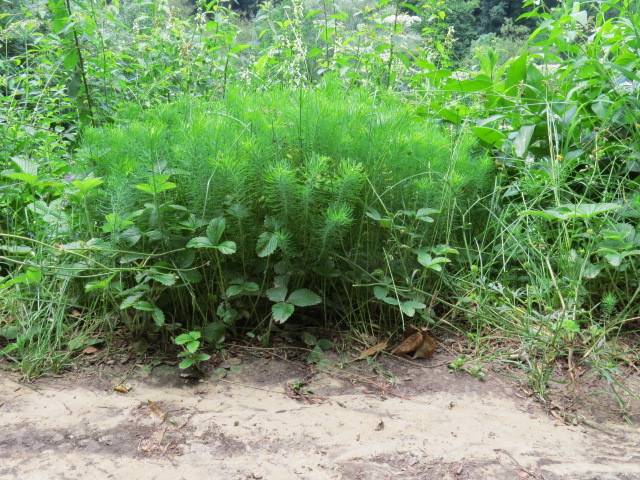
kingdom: Plantae
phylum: Tracheophyta
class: Magnoliopsida
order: Malpighiales
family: Euphorbiaceae
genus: Euphorbia
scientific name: Euphorbia cyparissias
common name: Cypress spurge
